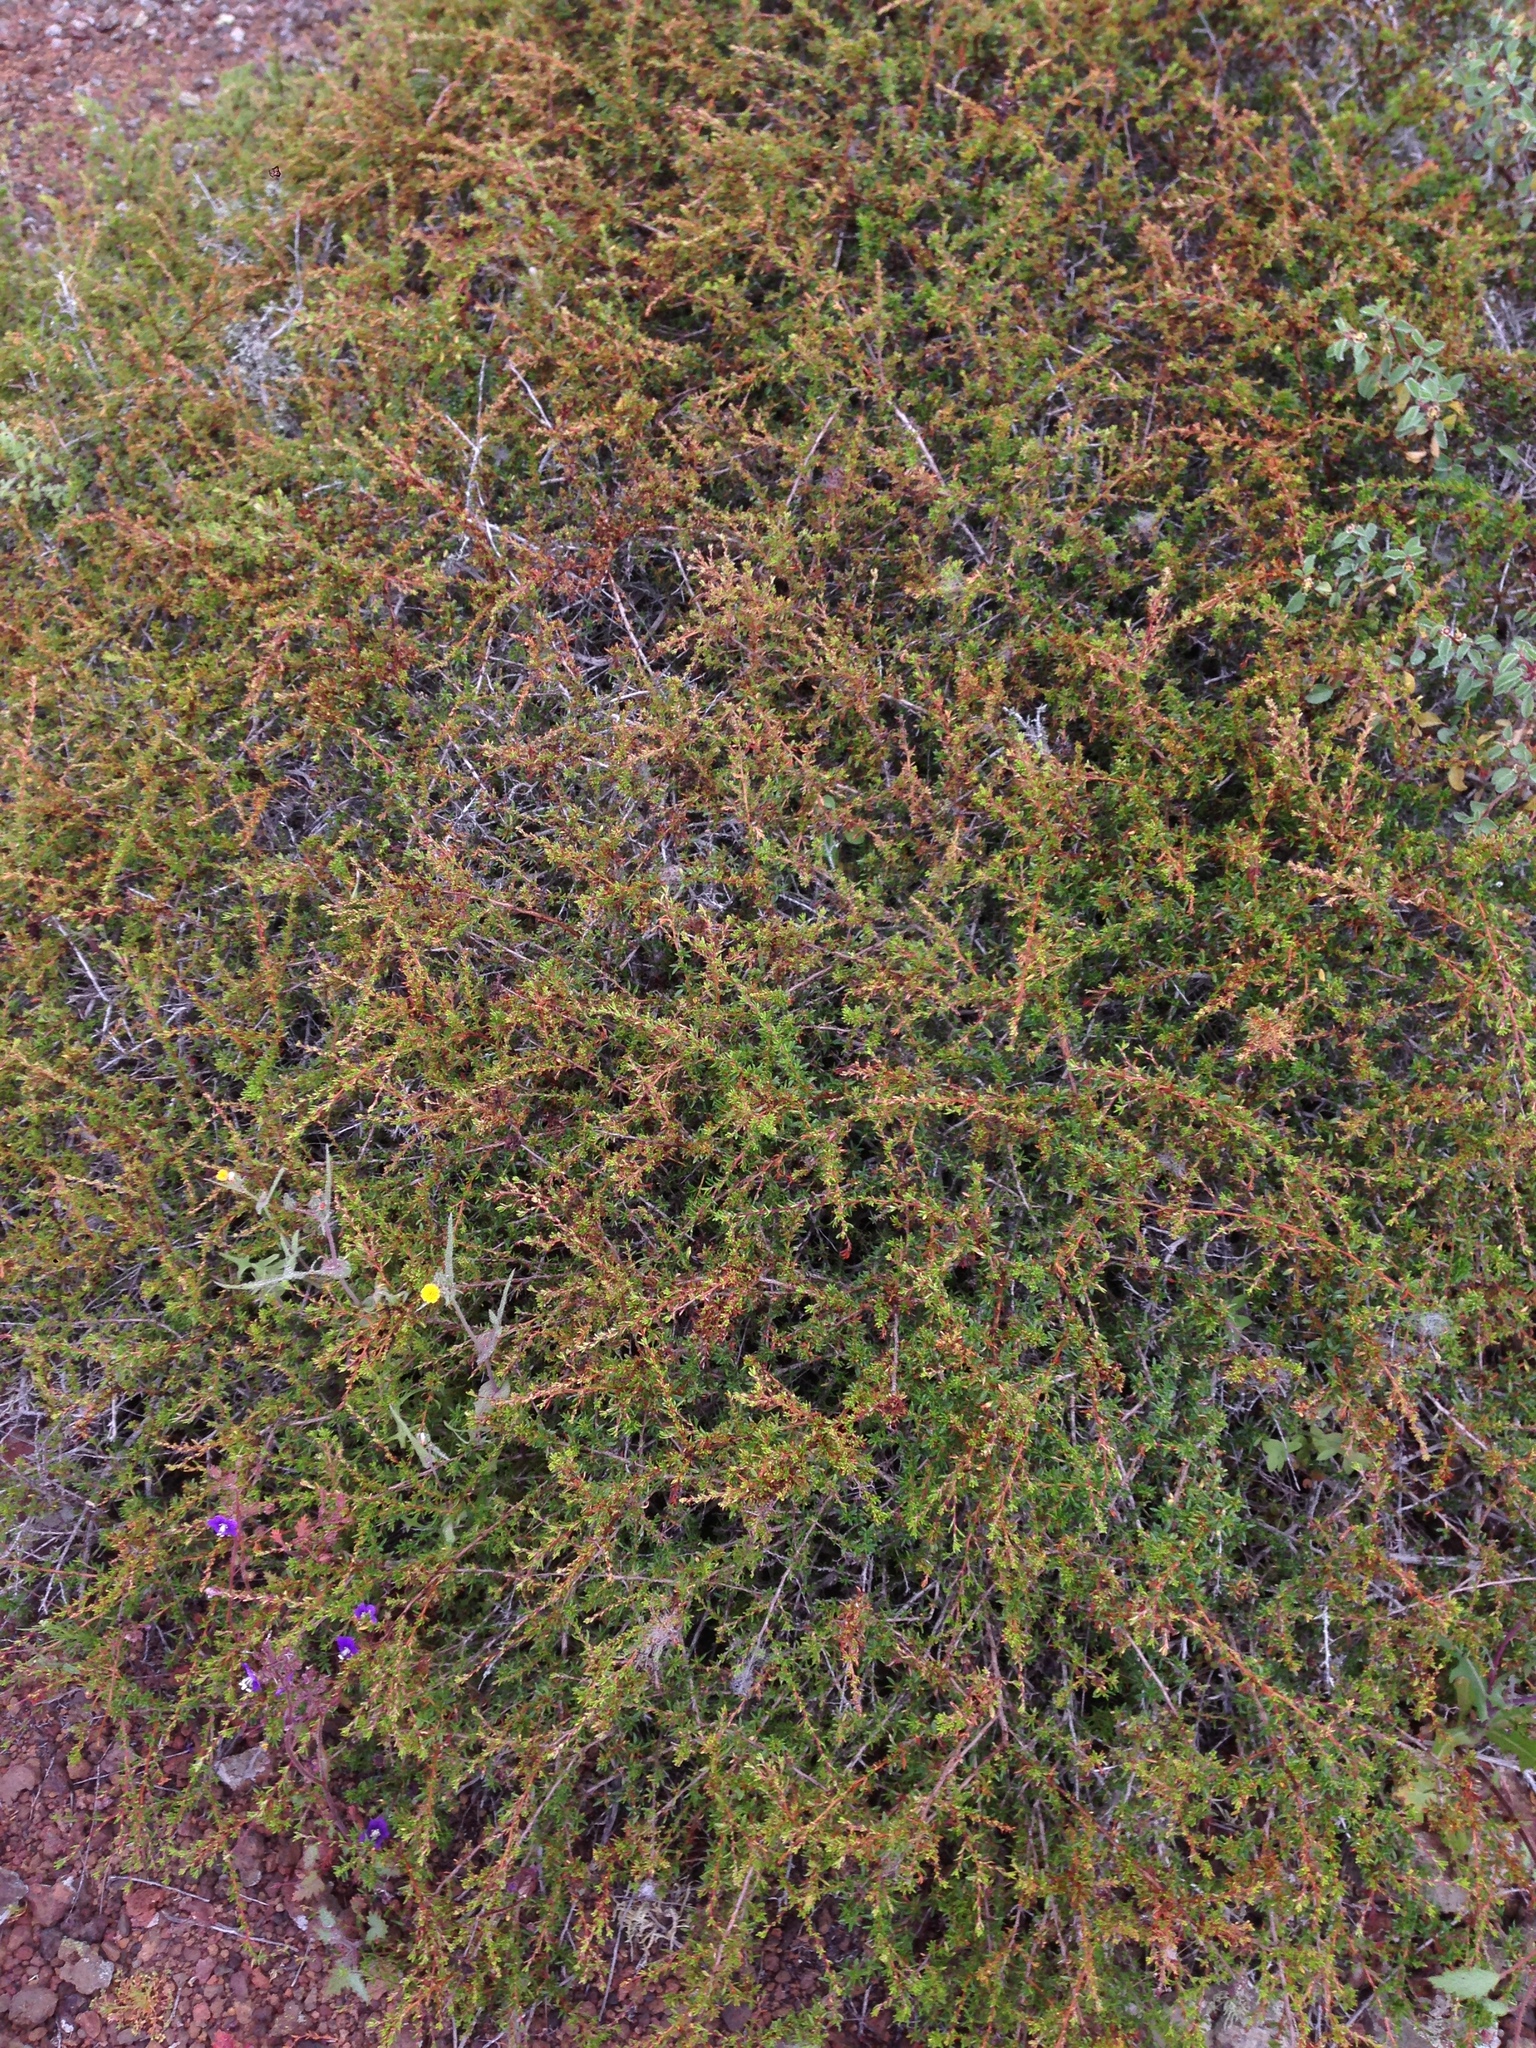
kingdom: Plantae
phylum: Tracheophyta
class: Magnoliopsida
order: Rosales
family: Rosaceae
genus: Adenostoma
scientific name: Adenostoma fasciculatum
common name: Chamise
